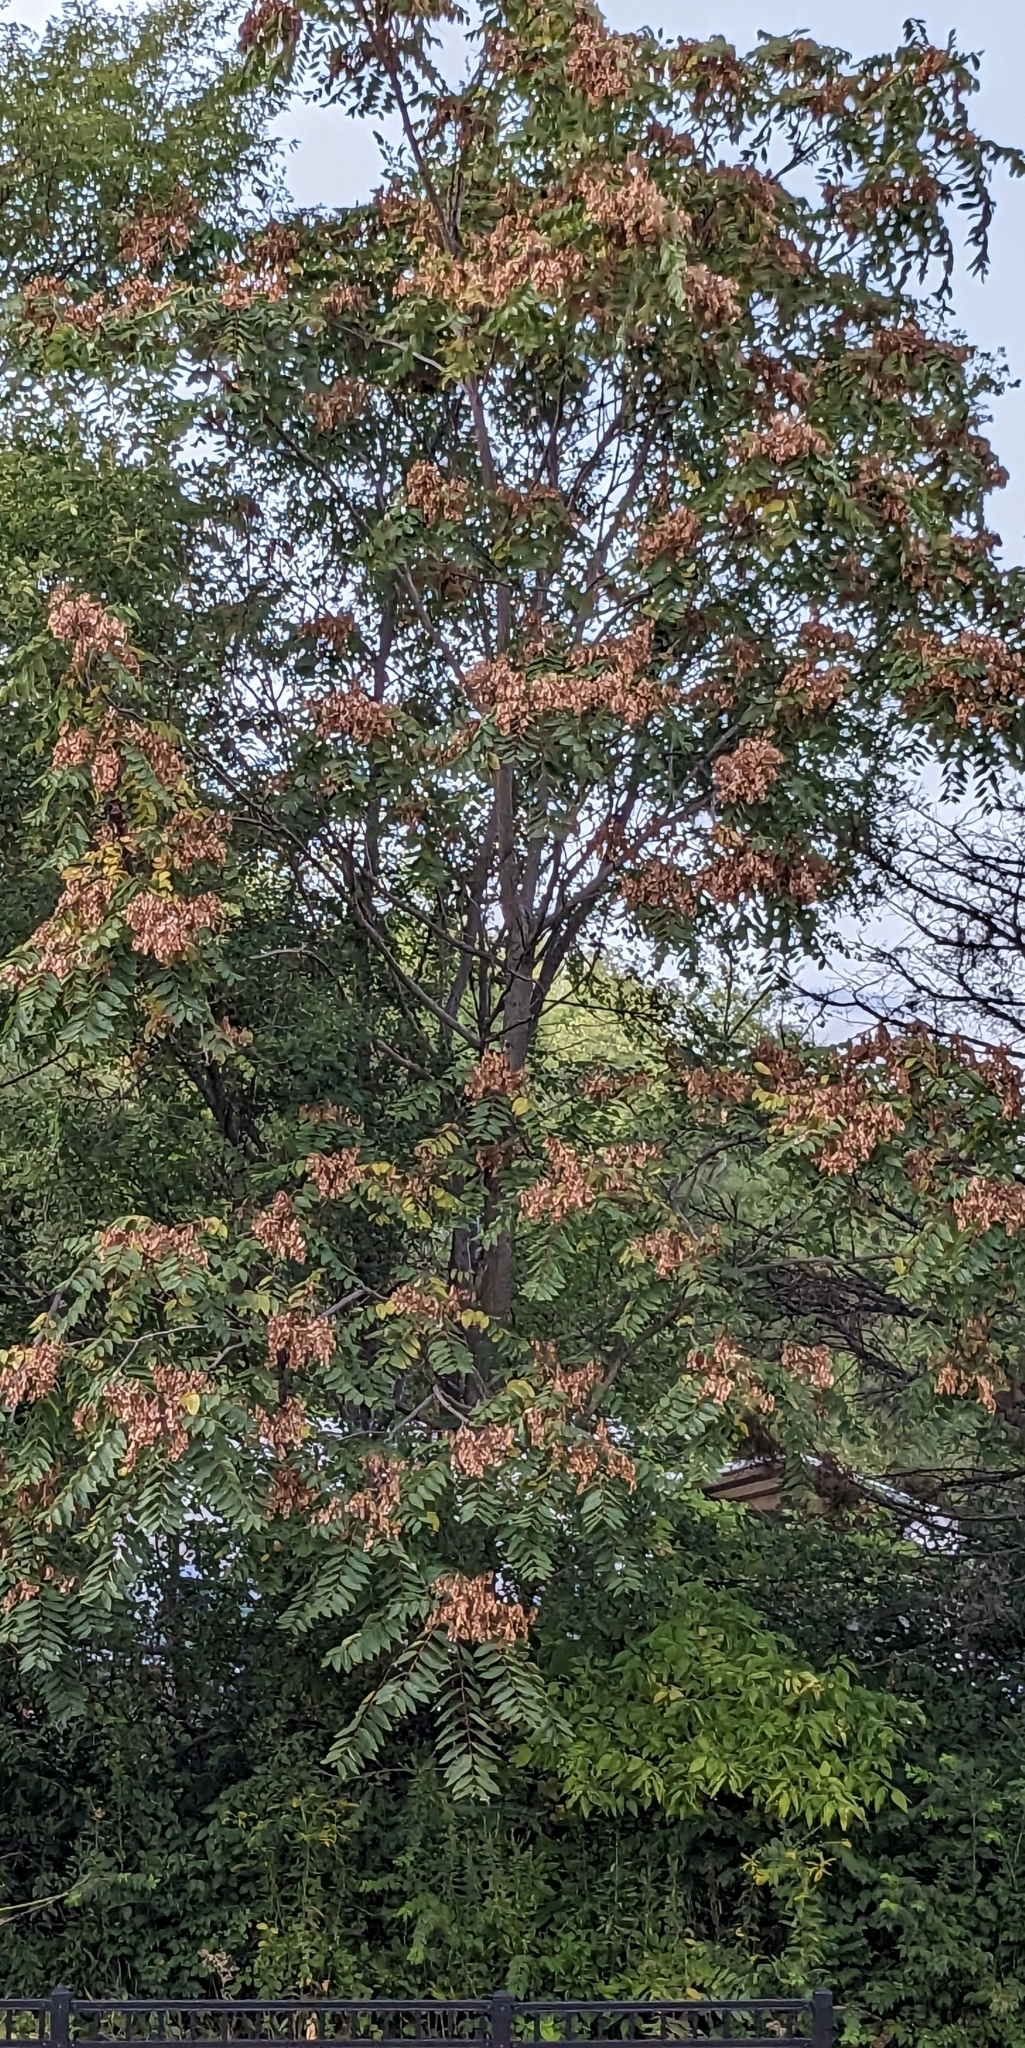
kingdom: Plantae
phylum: Tracheophyta
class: Magnoliopsida
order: Sapindales
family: Simaroubaceae
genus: Ailanthus
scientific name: Ailanthus altissima
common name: Tree-of-heaven
